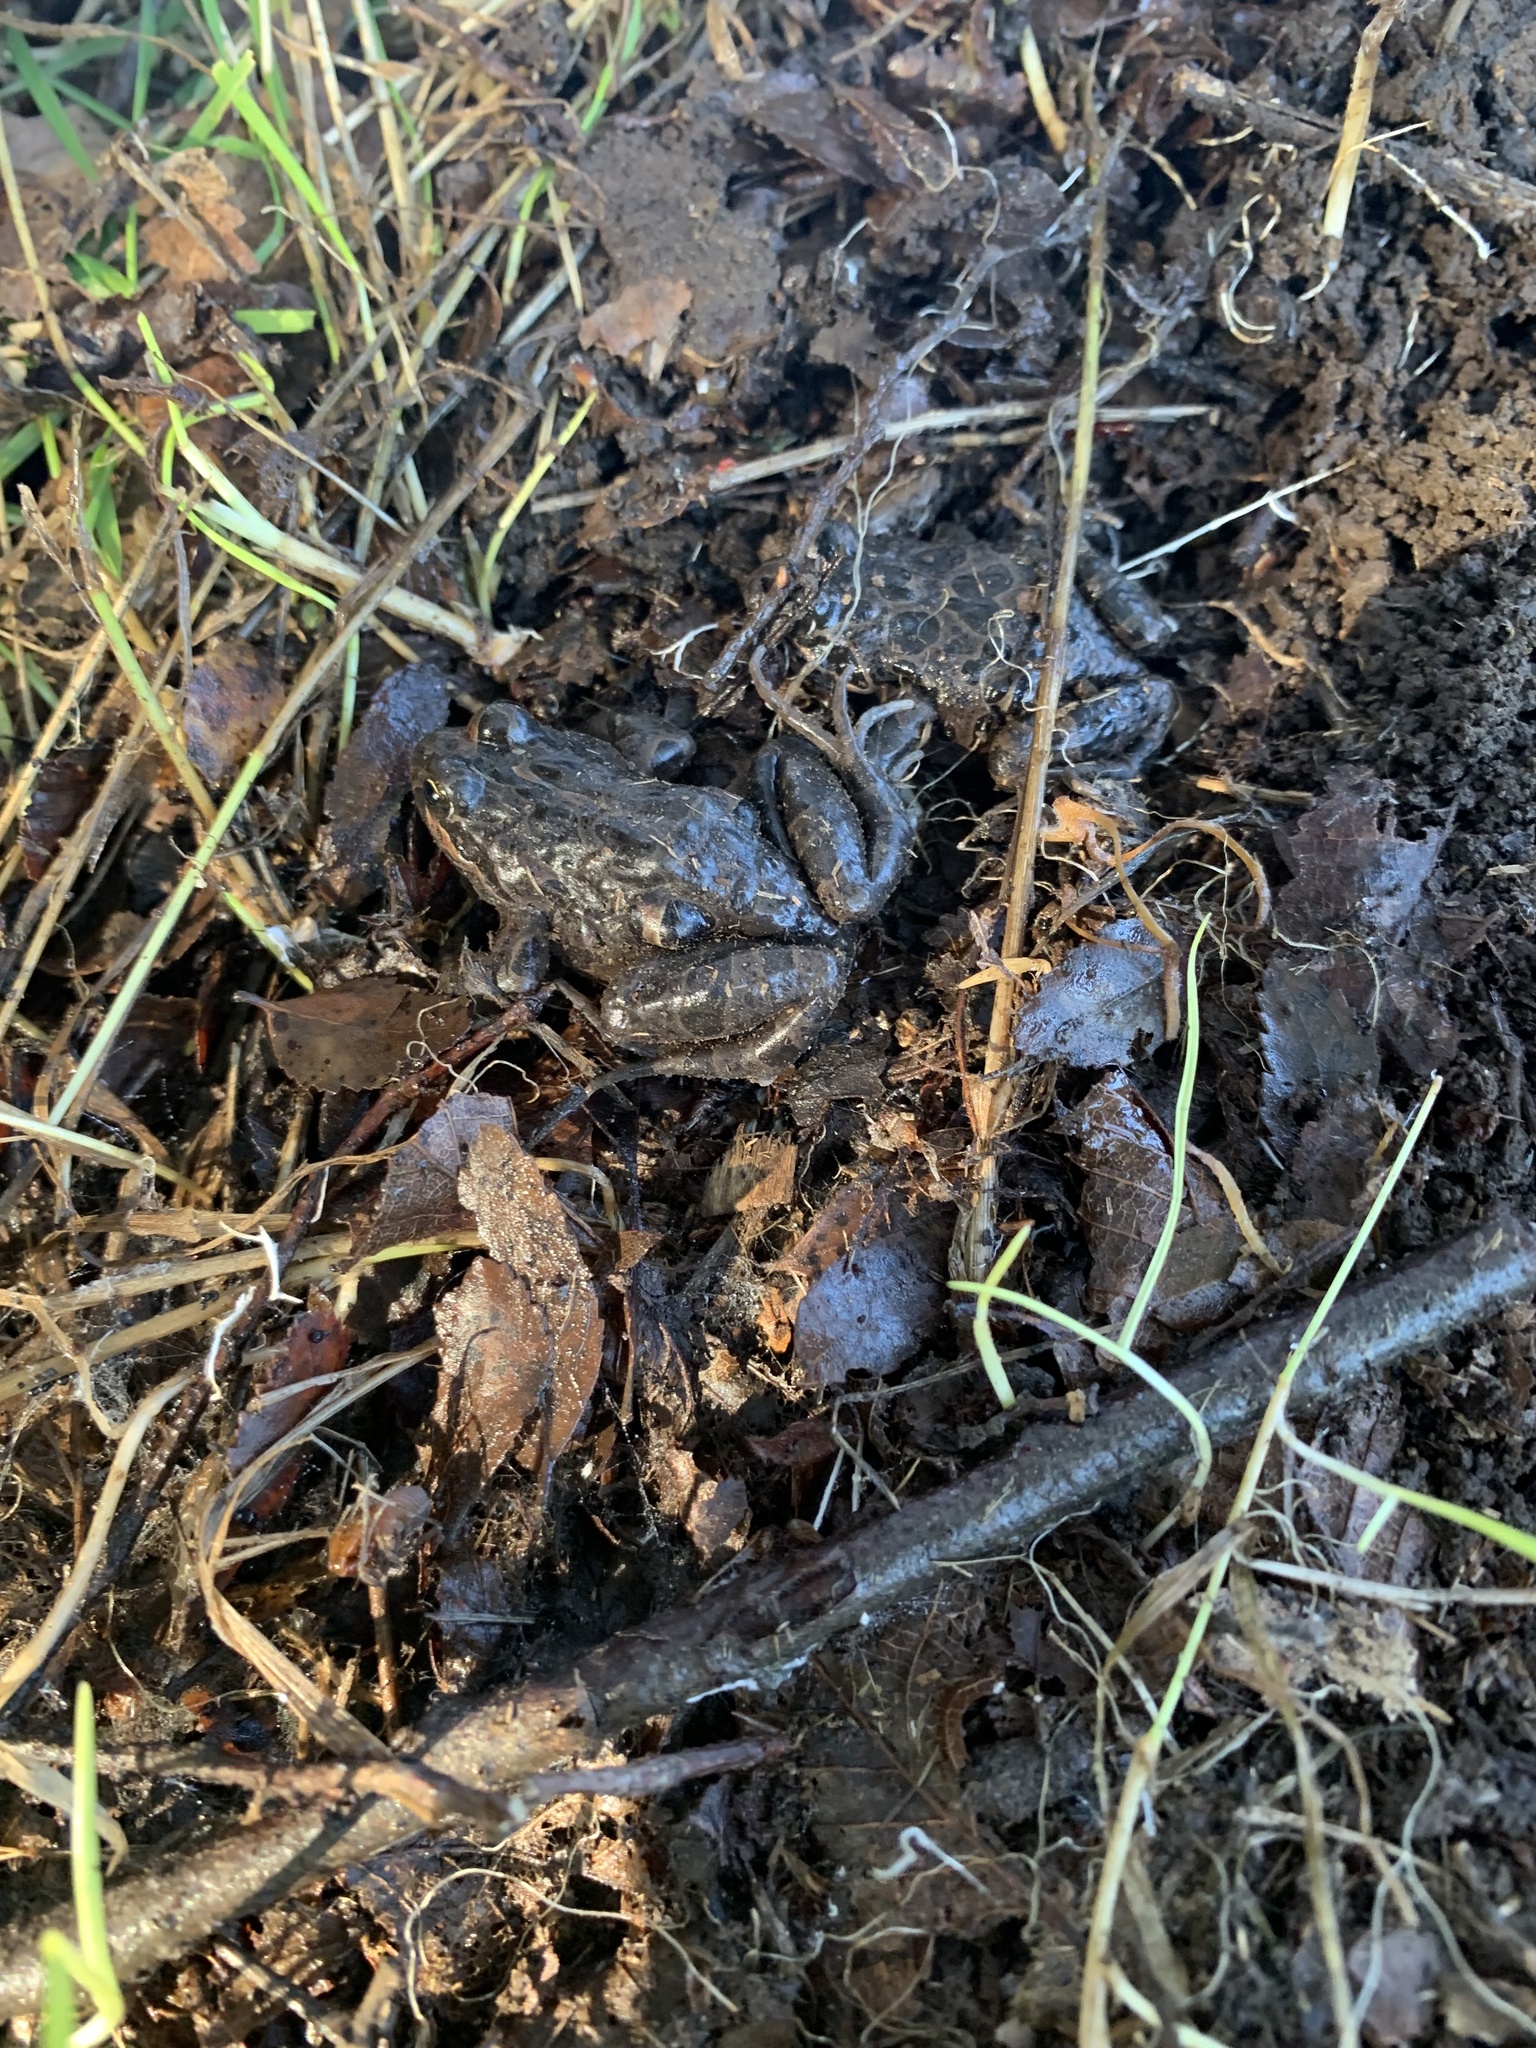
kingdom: Animalia
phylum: Chordata
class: Amphibia
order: Anura
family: Leptodactylidae
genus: Pleurodema
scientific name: Pleurodema thaul
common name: Chile four-eyed frog
